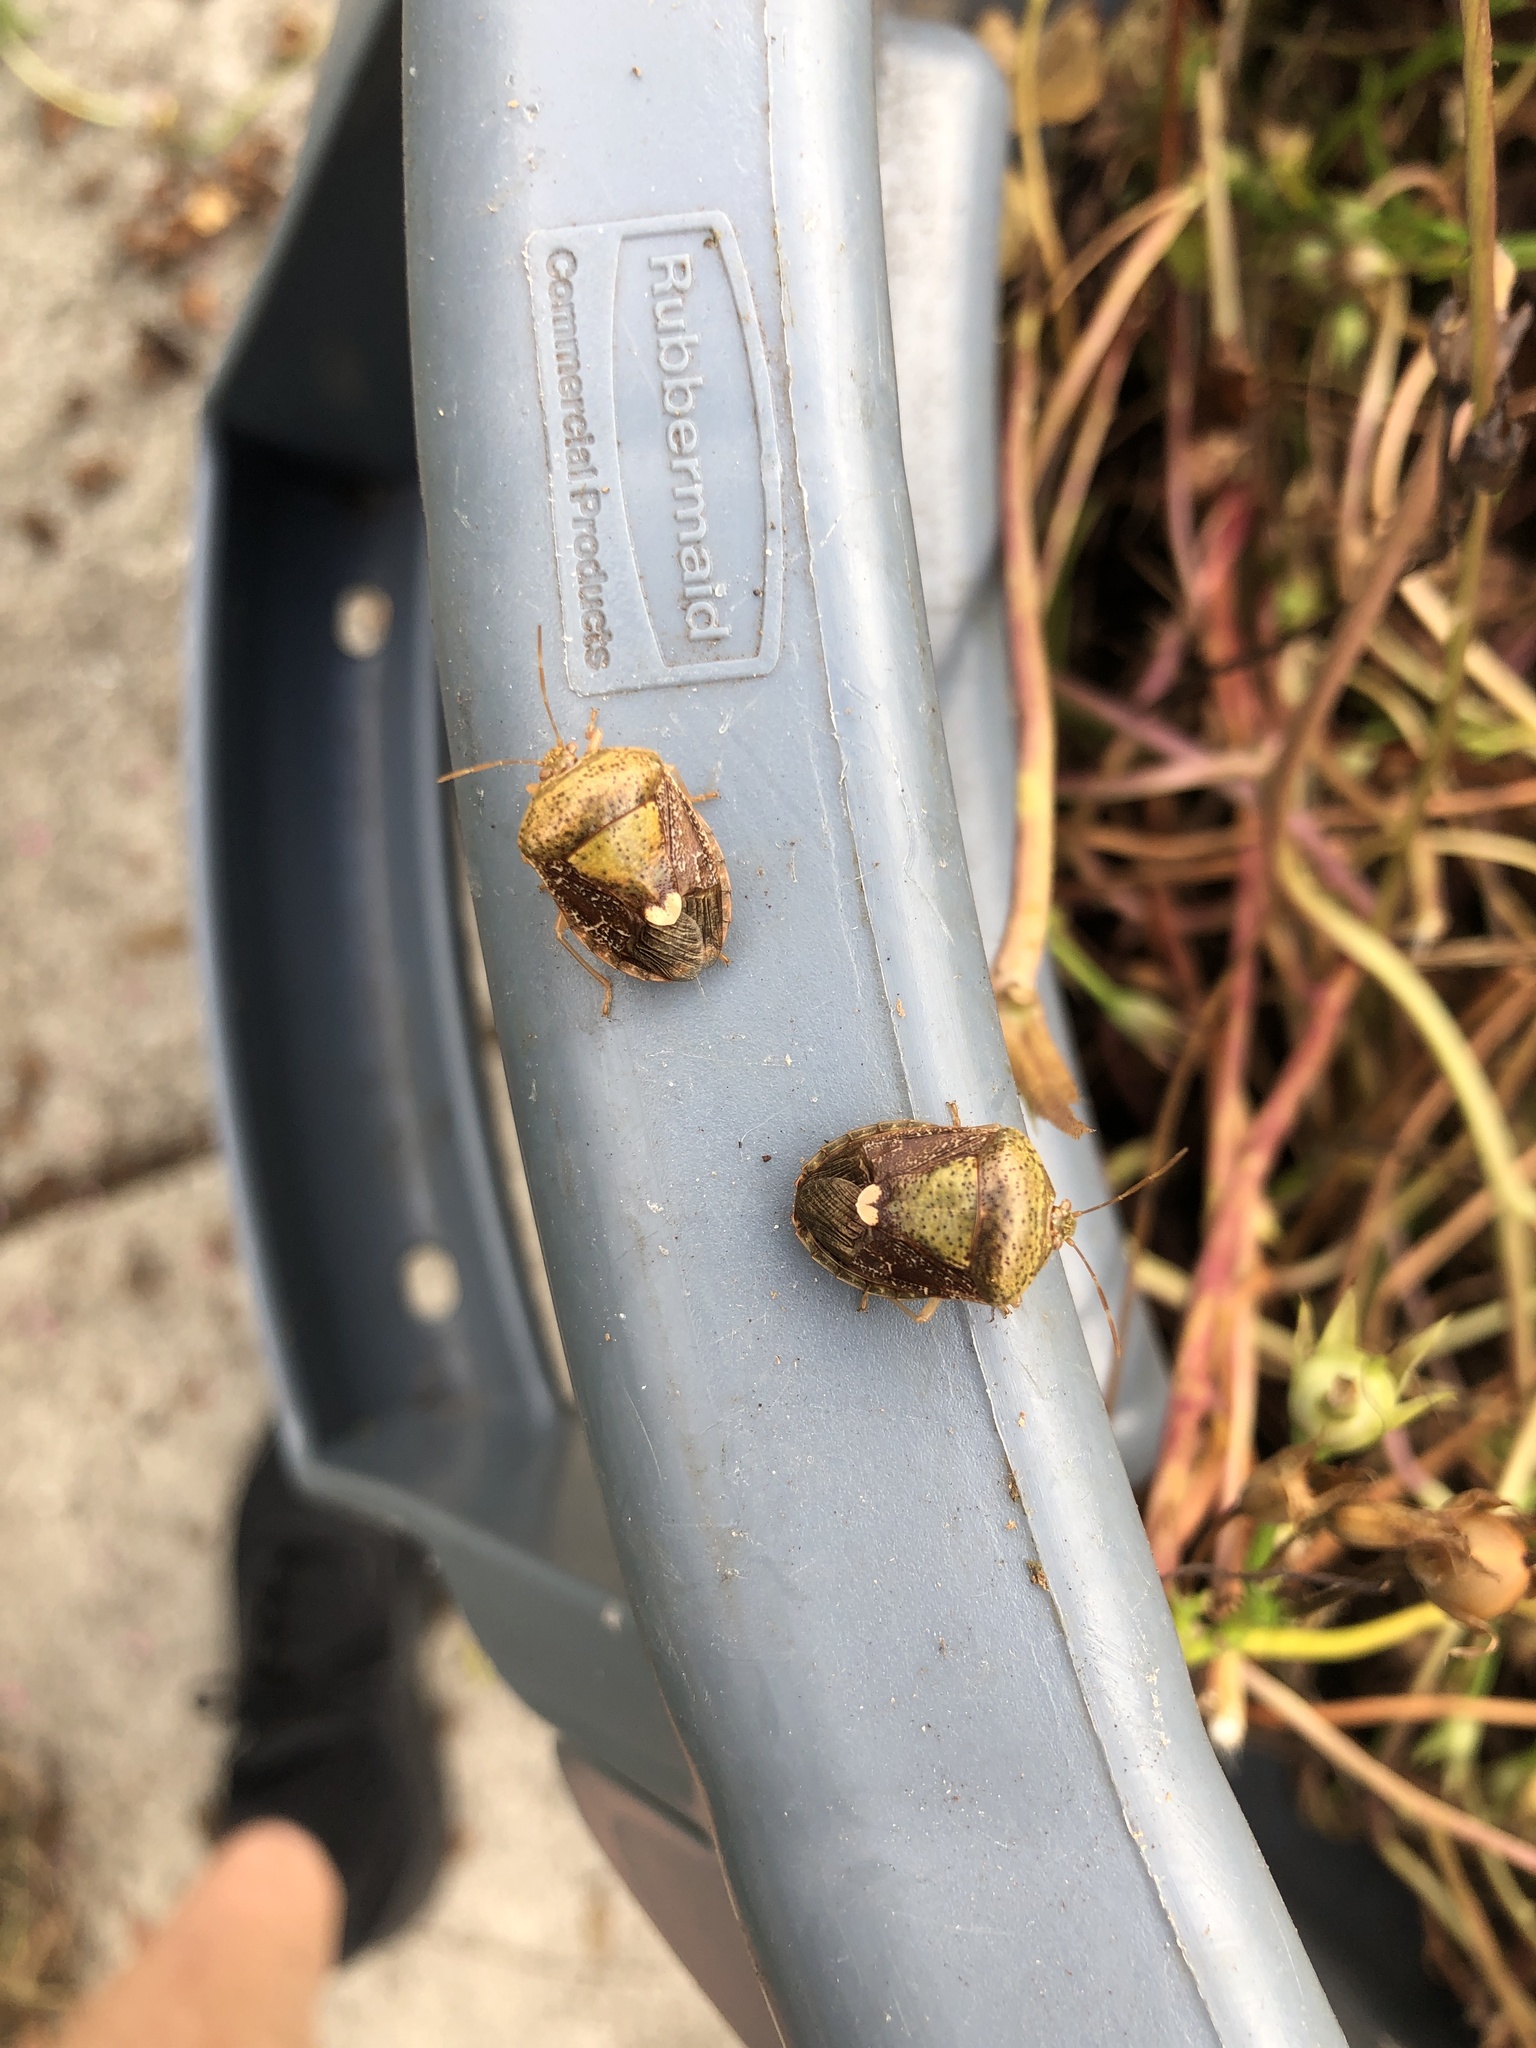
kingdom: Animalia
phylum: Arthropoda
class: Insecta
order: Hemiptera
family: Pentatomidae
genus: Edessa
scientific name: Edessa bifida
